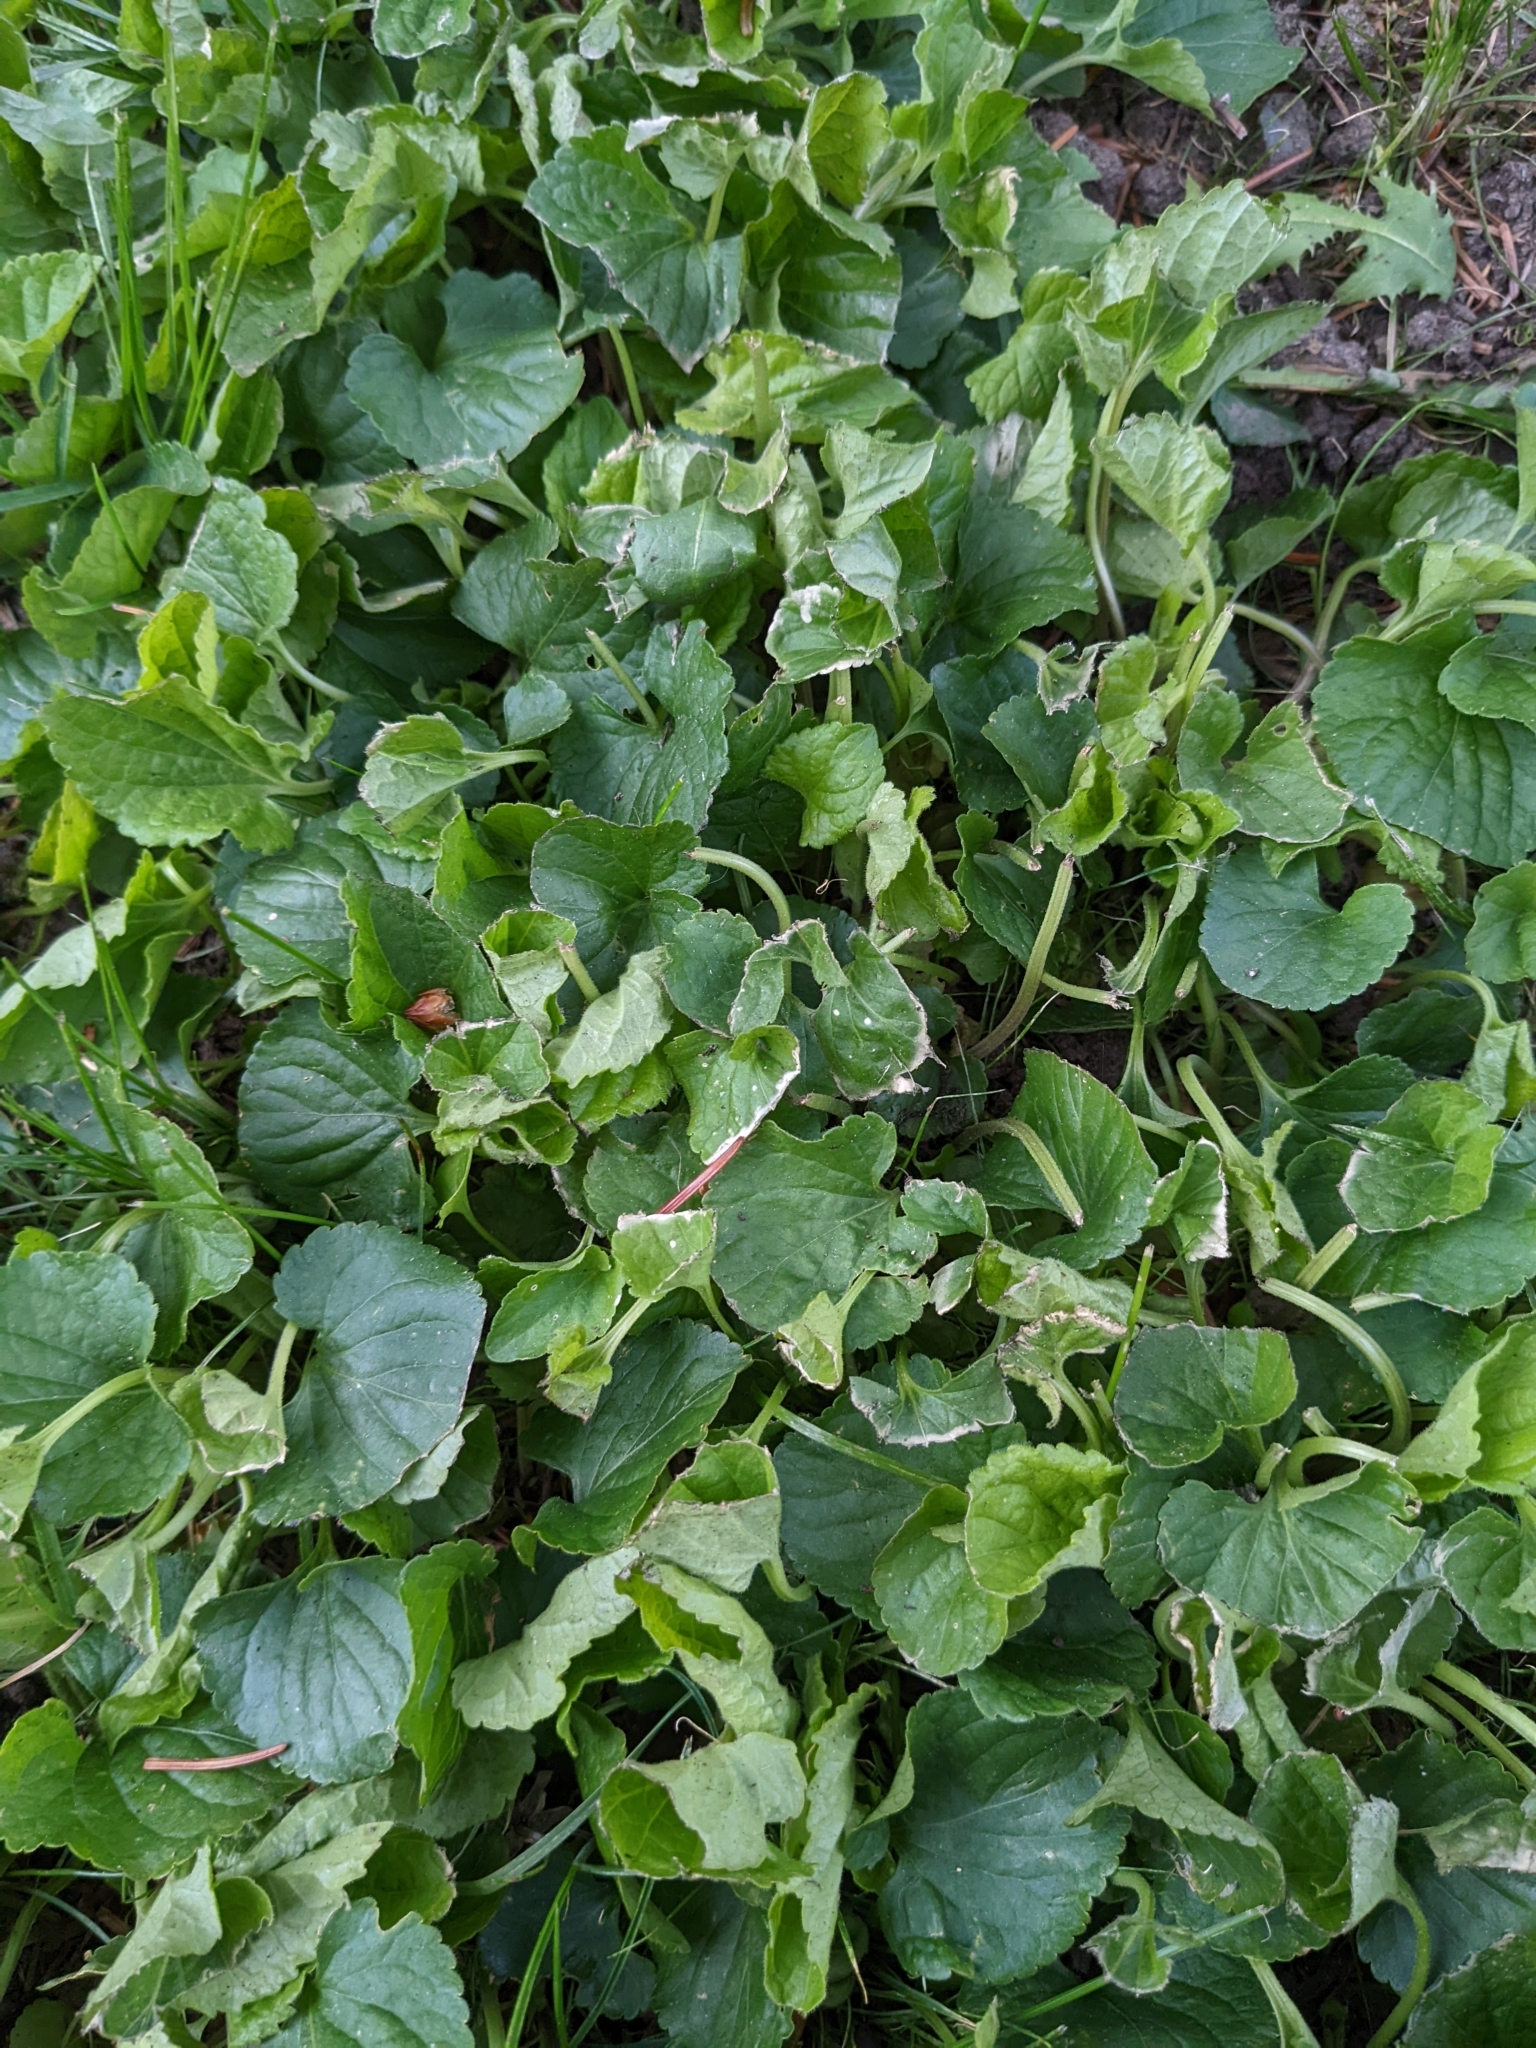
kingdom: Plantae
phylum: Tracheophyta
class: Magnoliopsida
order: Malpighiales
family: Violaceae
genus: Viola
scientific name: Viola odorata
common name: Sweet violet
